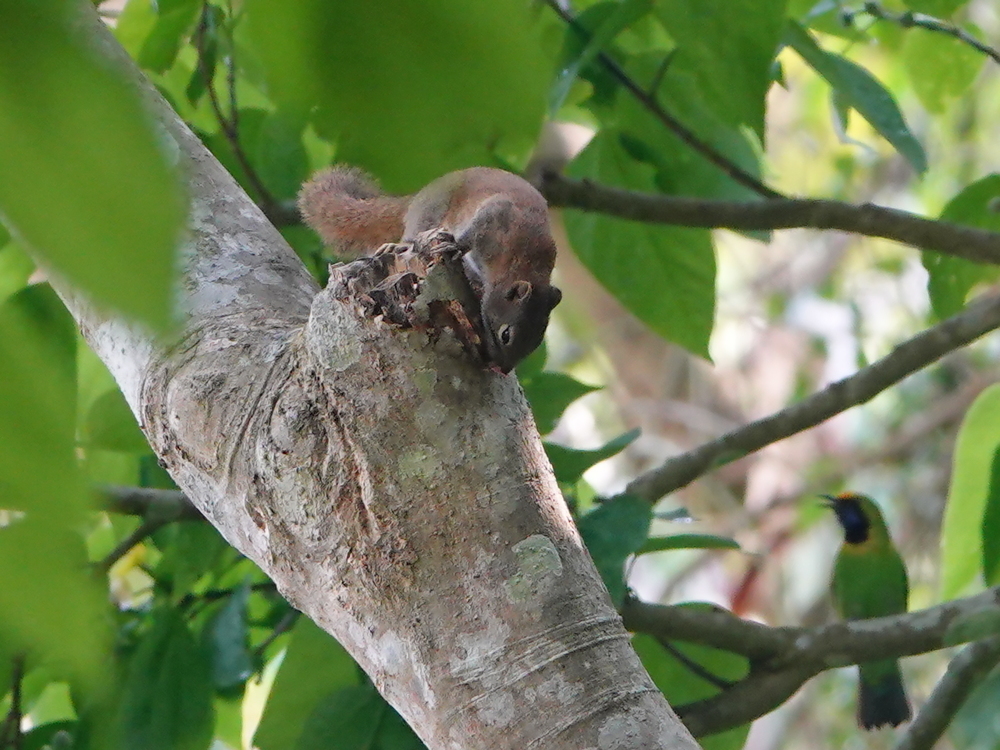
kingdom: Animalia
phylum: Chordata
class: Mammalia
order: Rodentia
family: Sciuridae
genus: Callosciurus
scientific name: Callosciurus pygerythrus
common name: Irrawaddy squirrel
